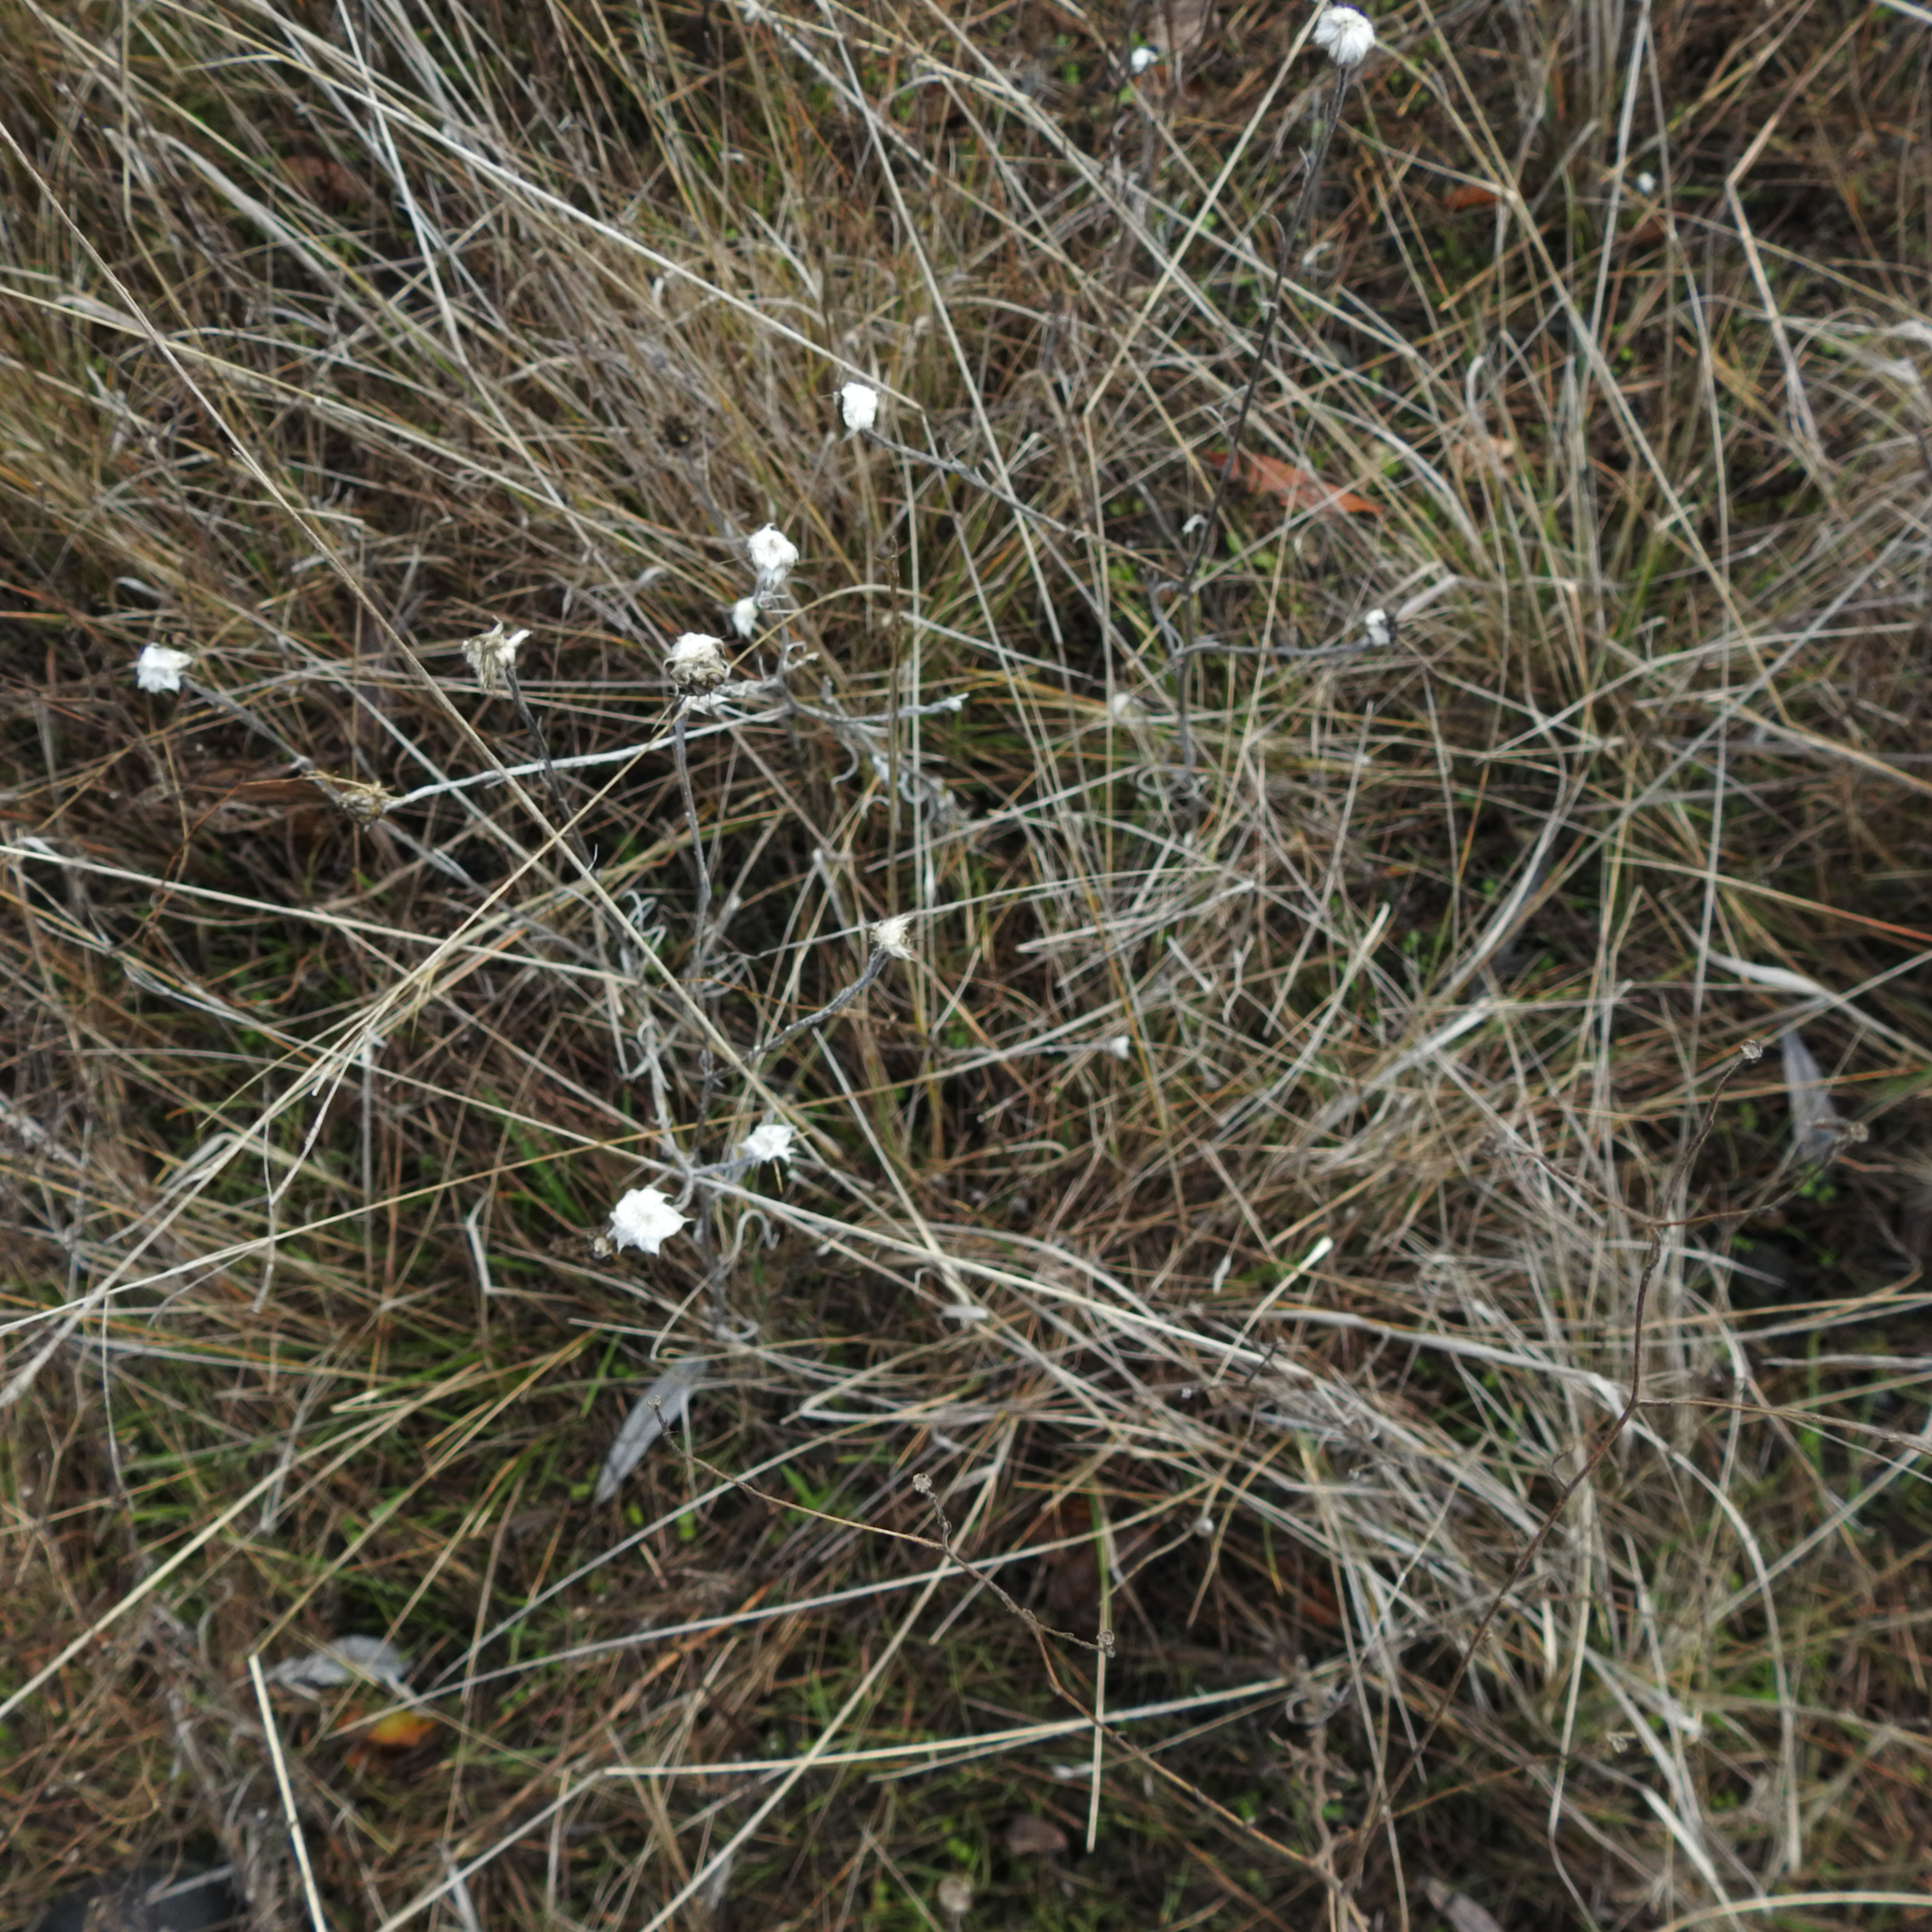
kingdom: Plantae
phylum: Tracheophyta
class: Magnoliopsida
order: Asterales
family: Asteraceae
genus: Centaurea
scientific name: Centaurea solstitialis
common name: Yellow star-thistle
